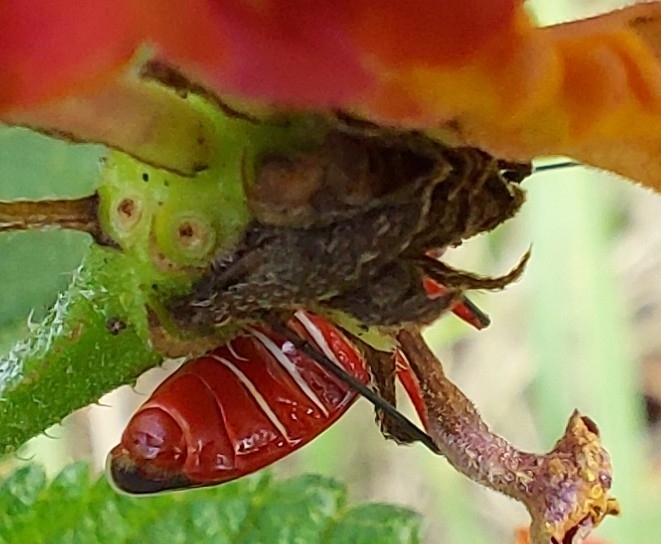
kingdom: Animalia
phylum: Arthropoda
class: Insecta
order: Hemiptera
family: Pyrrhocoridae
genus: Dysdercus
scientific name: Dysdercus suturellus
